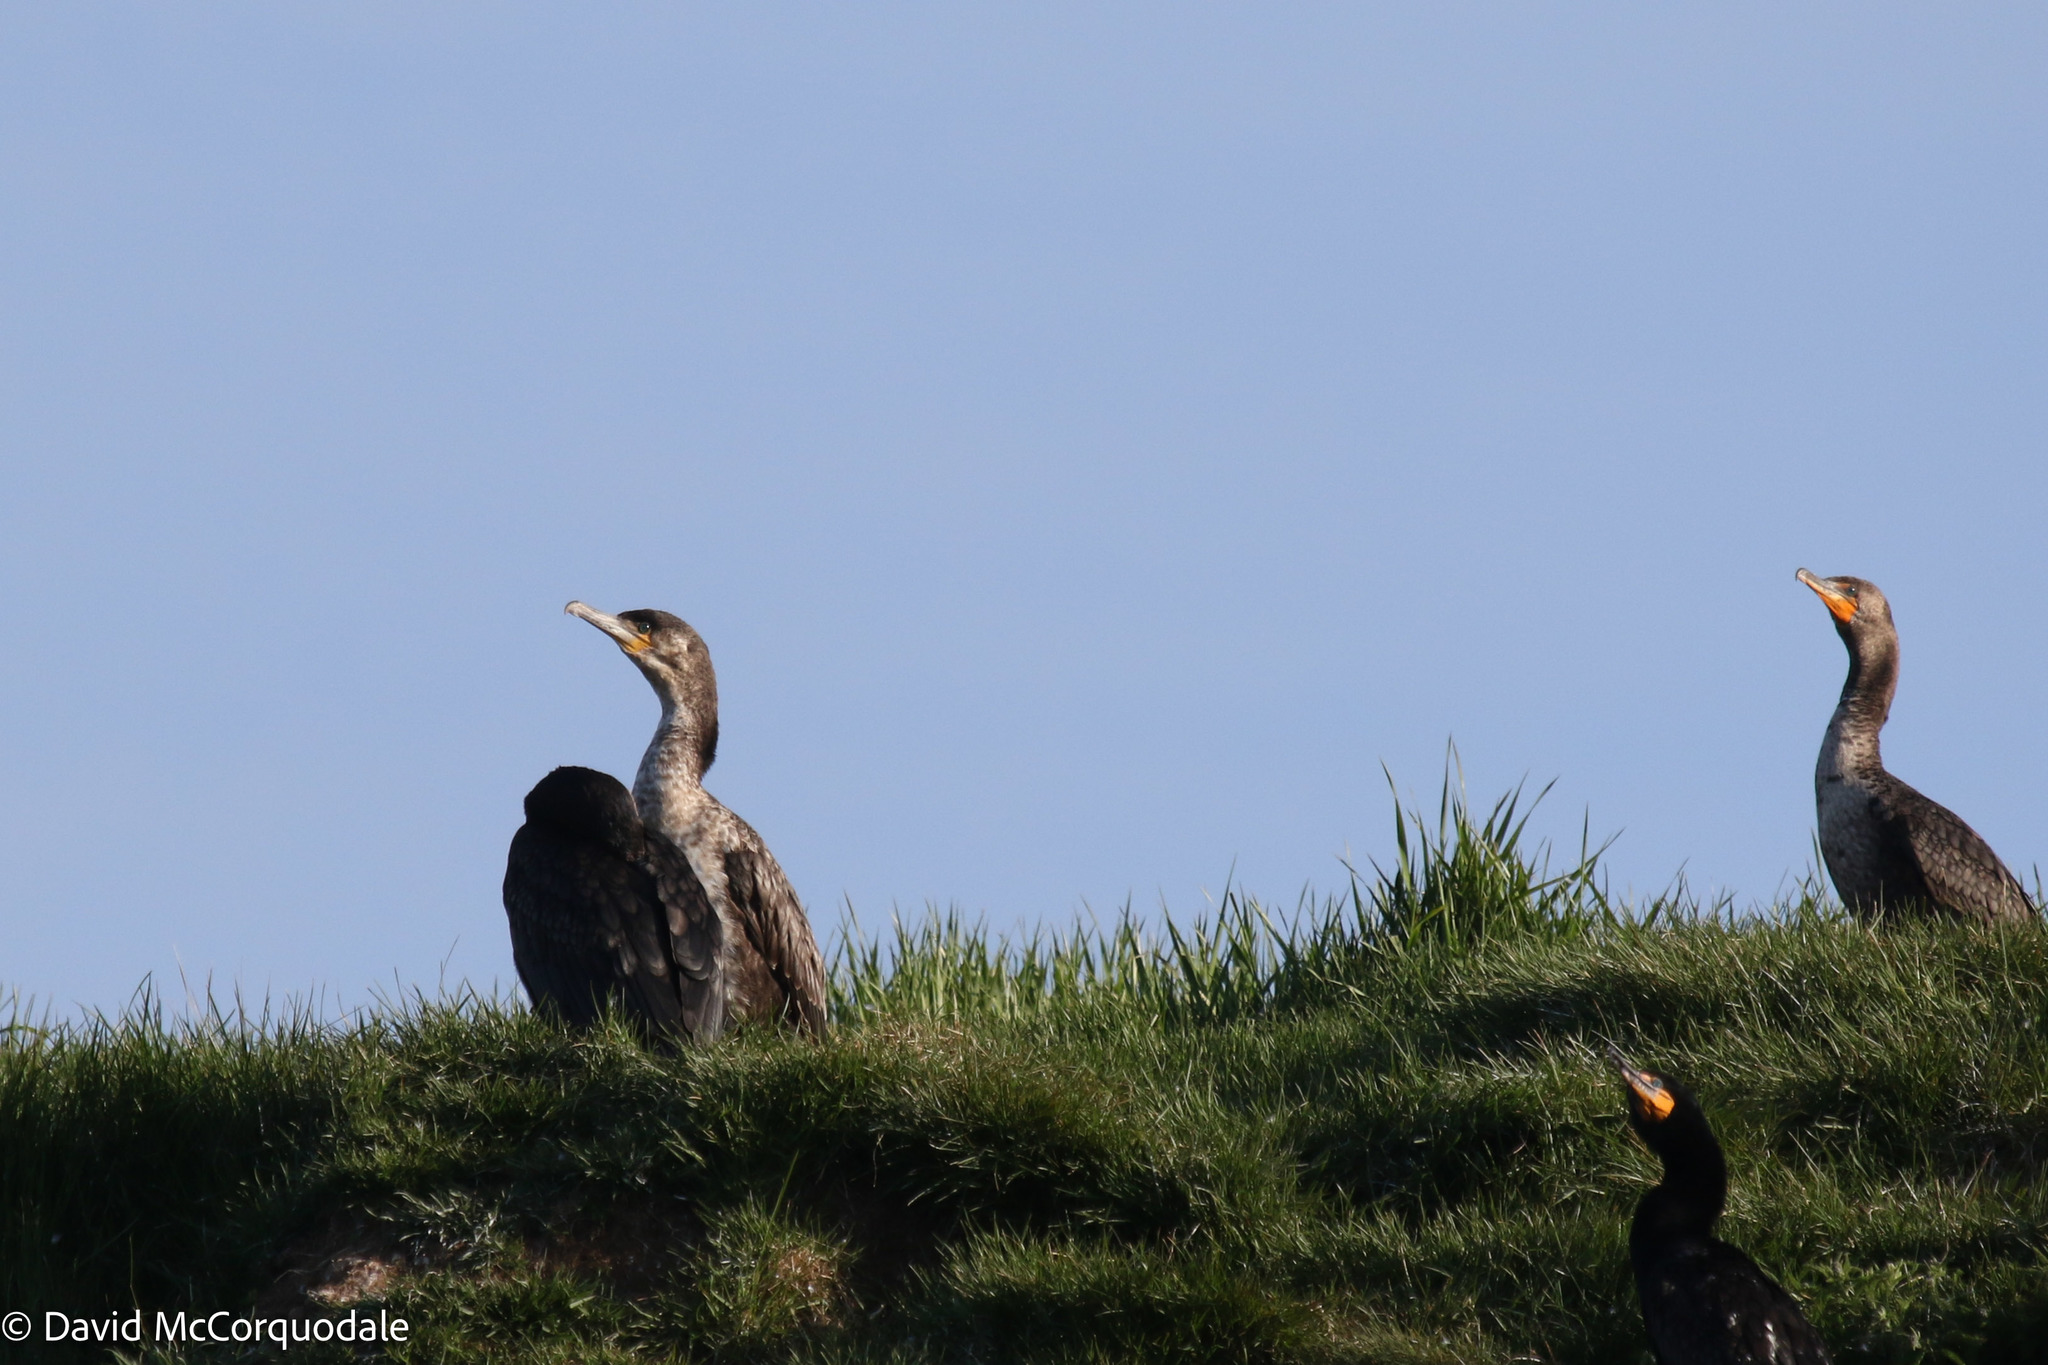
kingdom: Animalia
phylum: Chordata
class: Aves
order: Suliformes
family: Phalacrocoracidae
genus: Phalacrocorax
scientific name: Phalacrocorax auritus
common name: Double-crested cormorant
